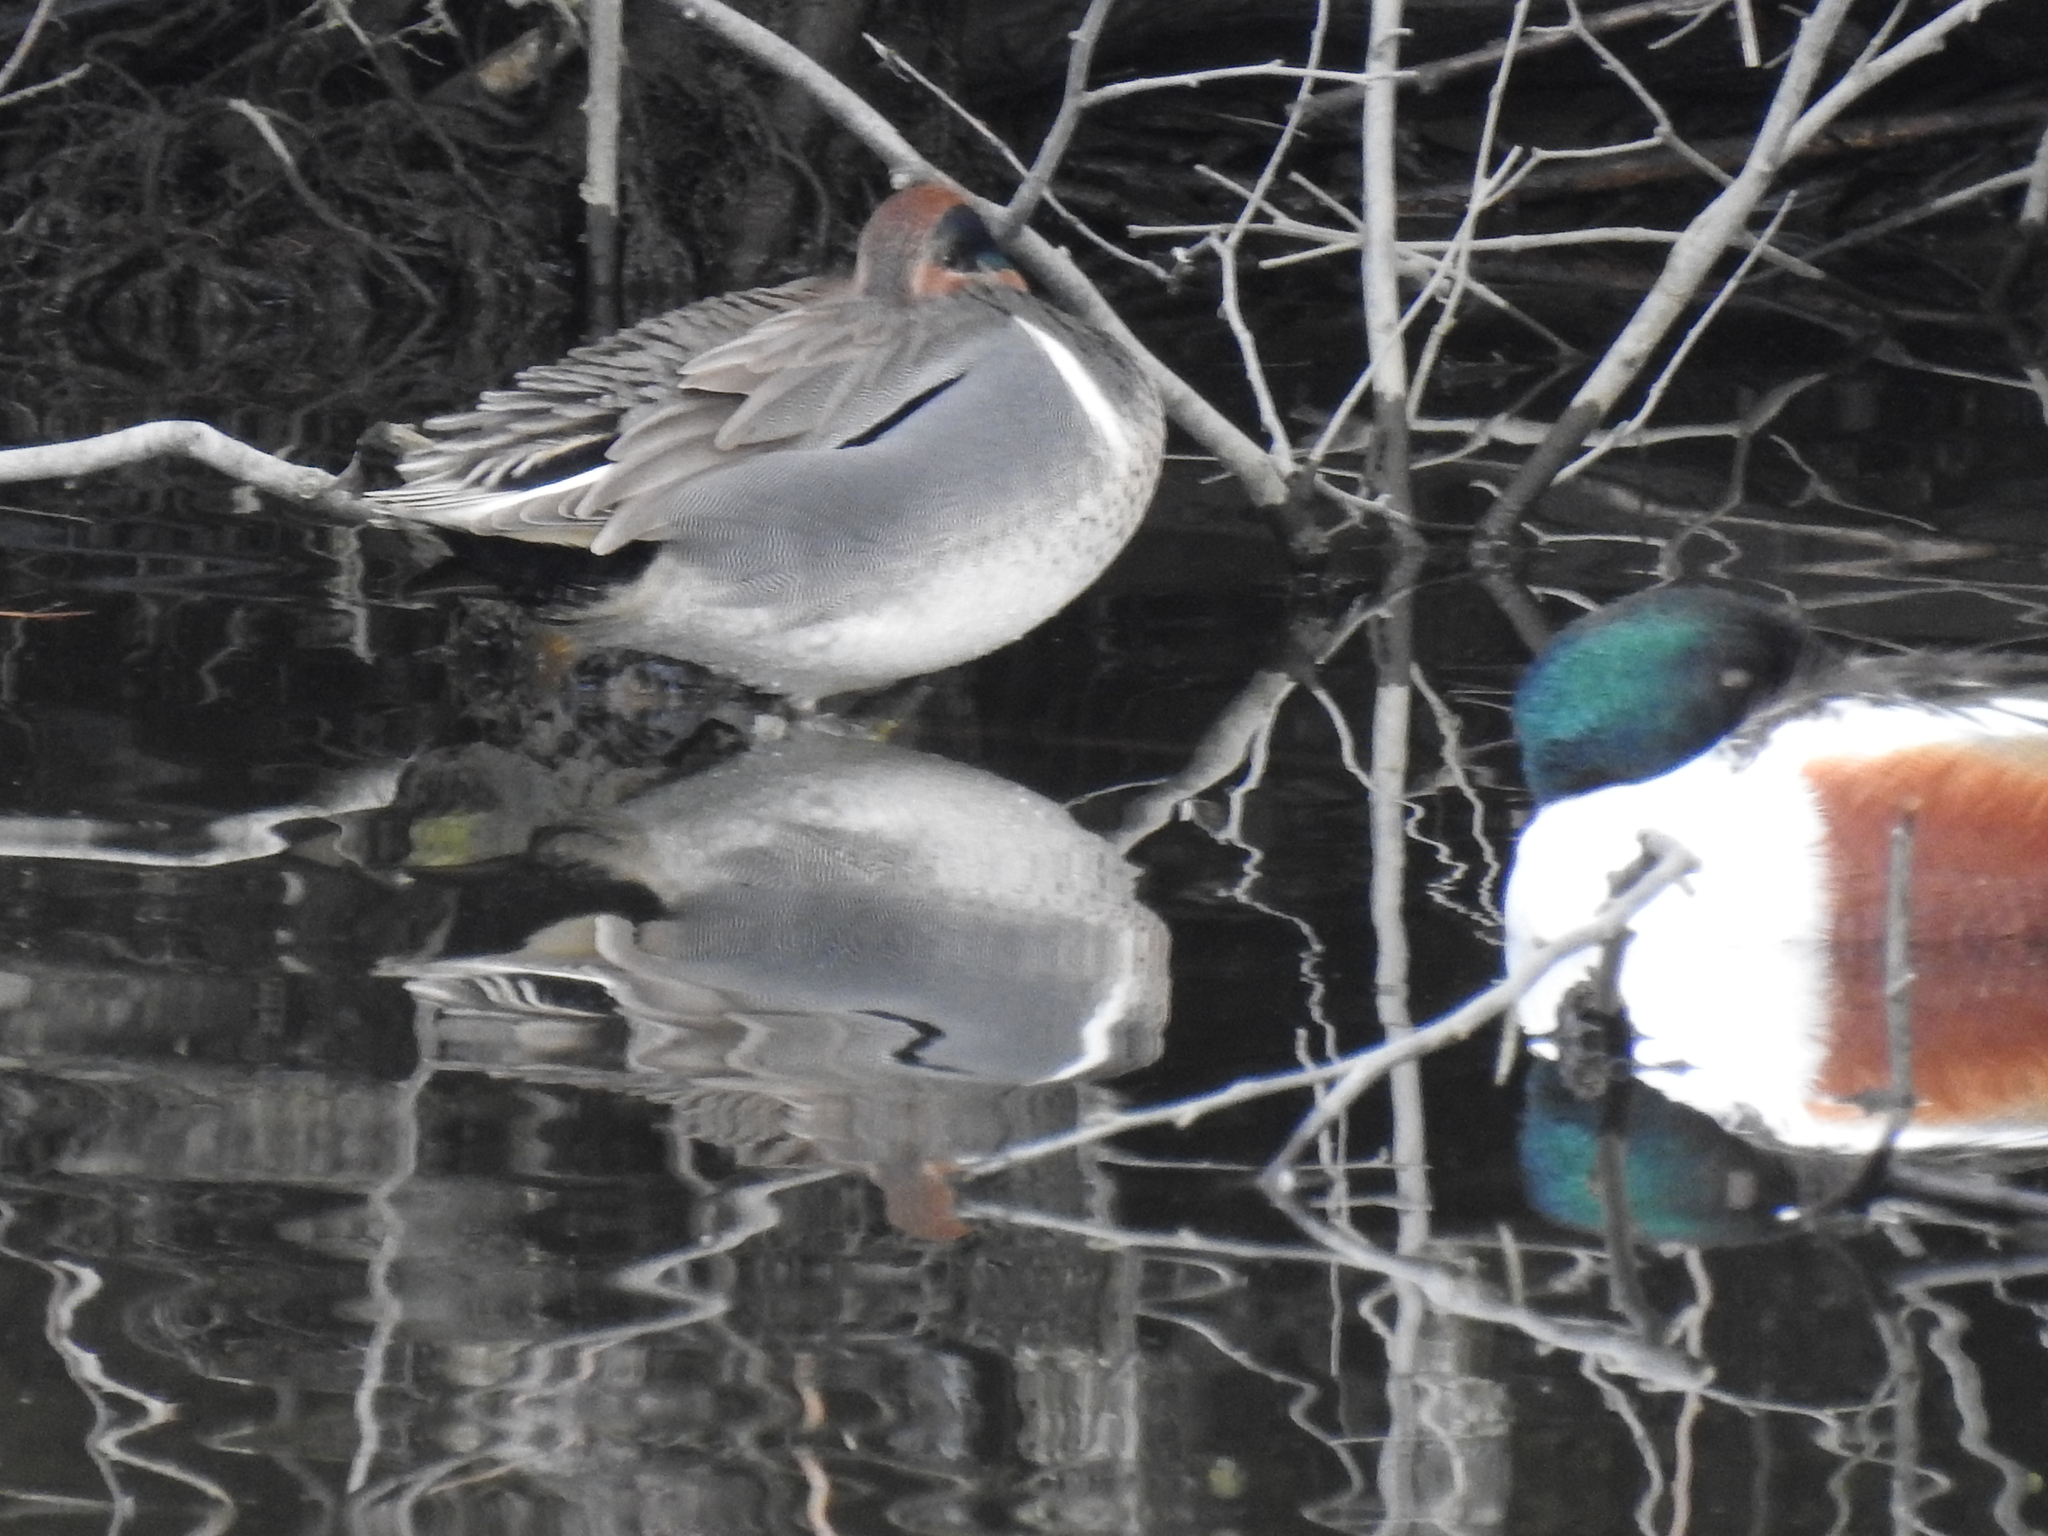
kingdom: Animalia
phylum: Chordata
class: Aves
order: Anseriformes
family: Anatidae
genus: Anas
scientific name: Anas crecca
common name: Eurasian teal
